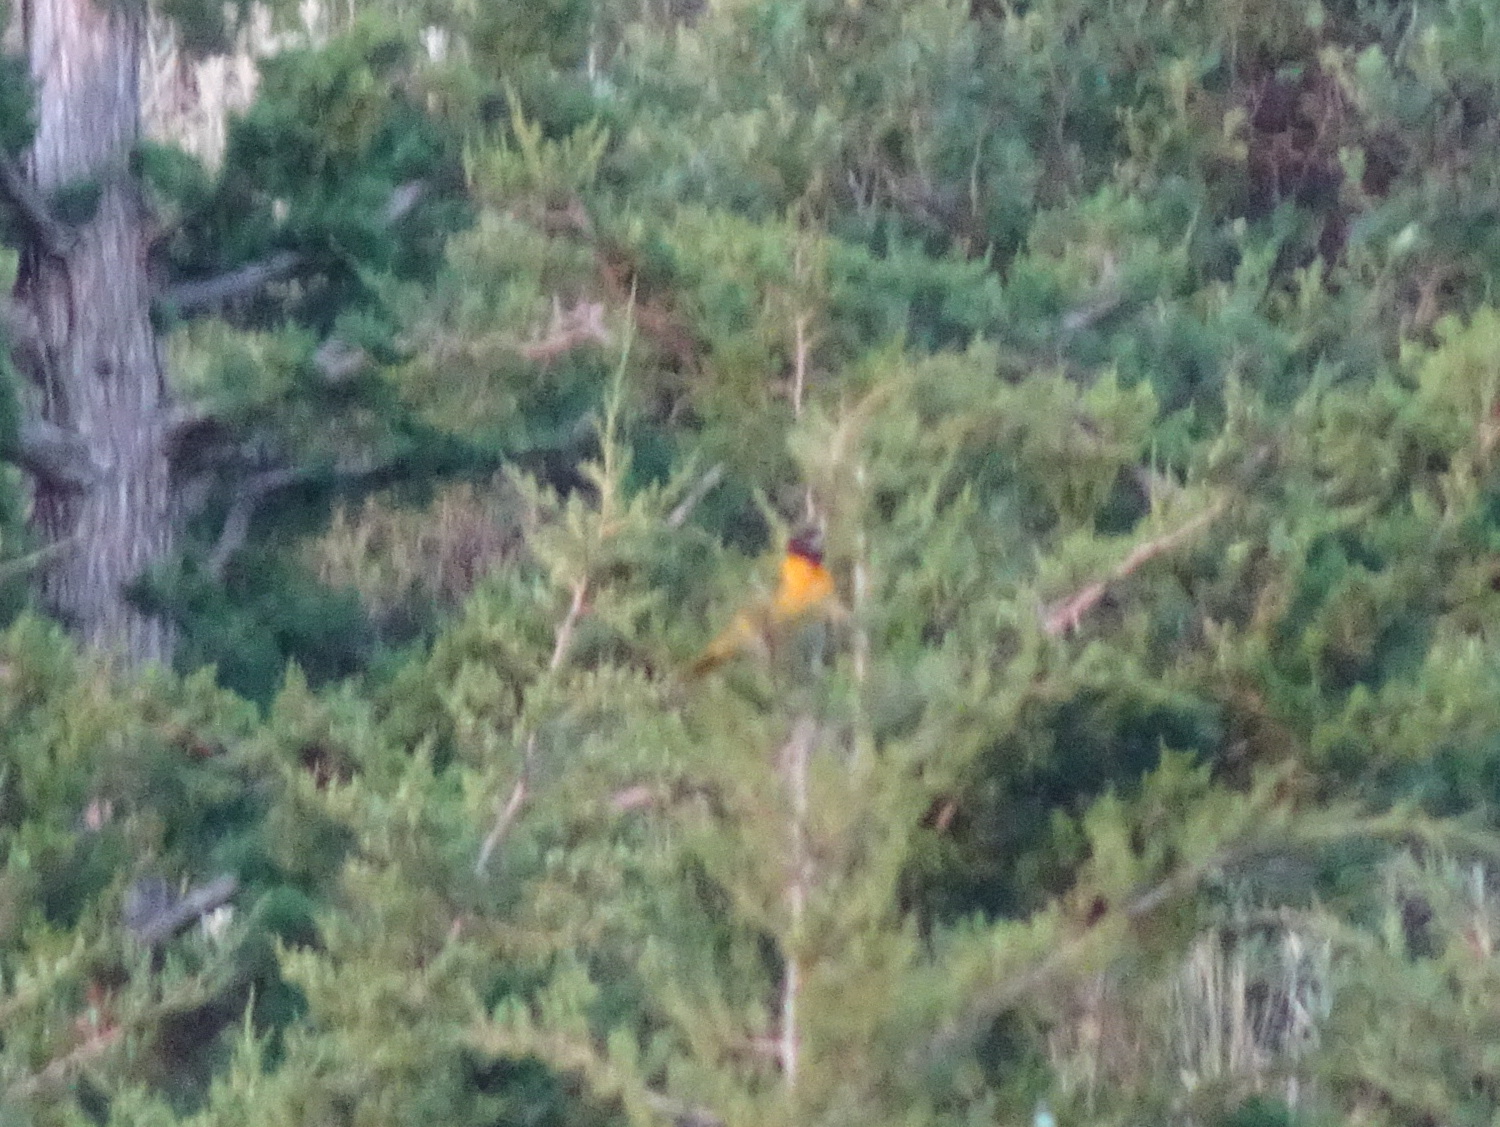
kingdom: Animalia
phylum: Chordata
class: Aves
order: Passeriformes
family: Icteridae
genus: Icterus
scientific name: Icterus galbula
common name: Baltimore oriole
